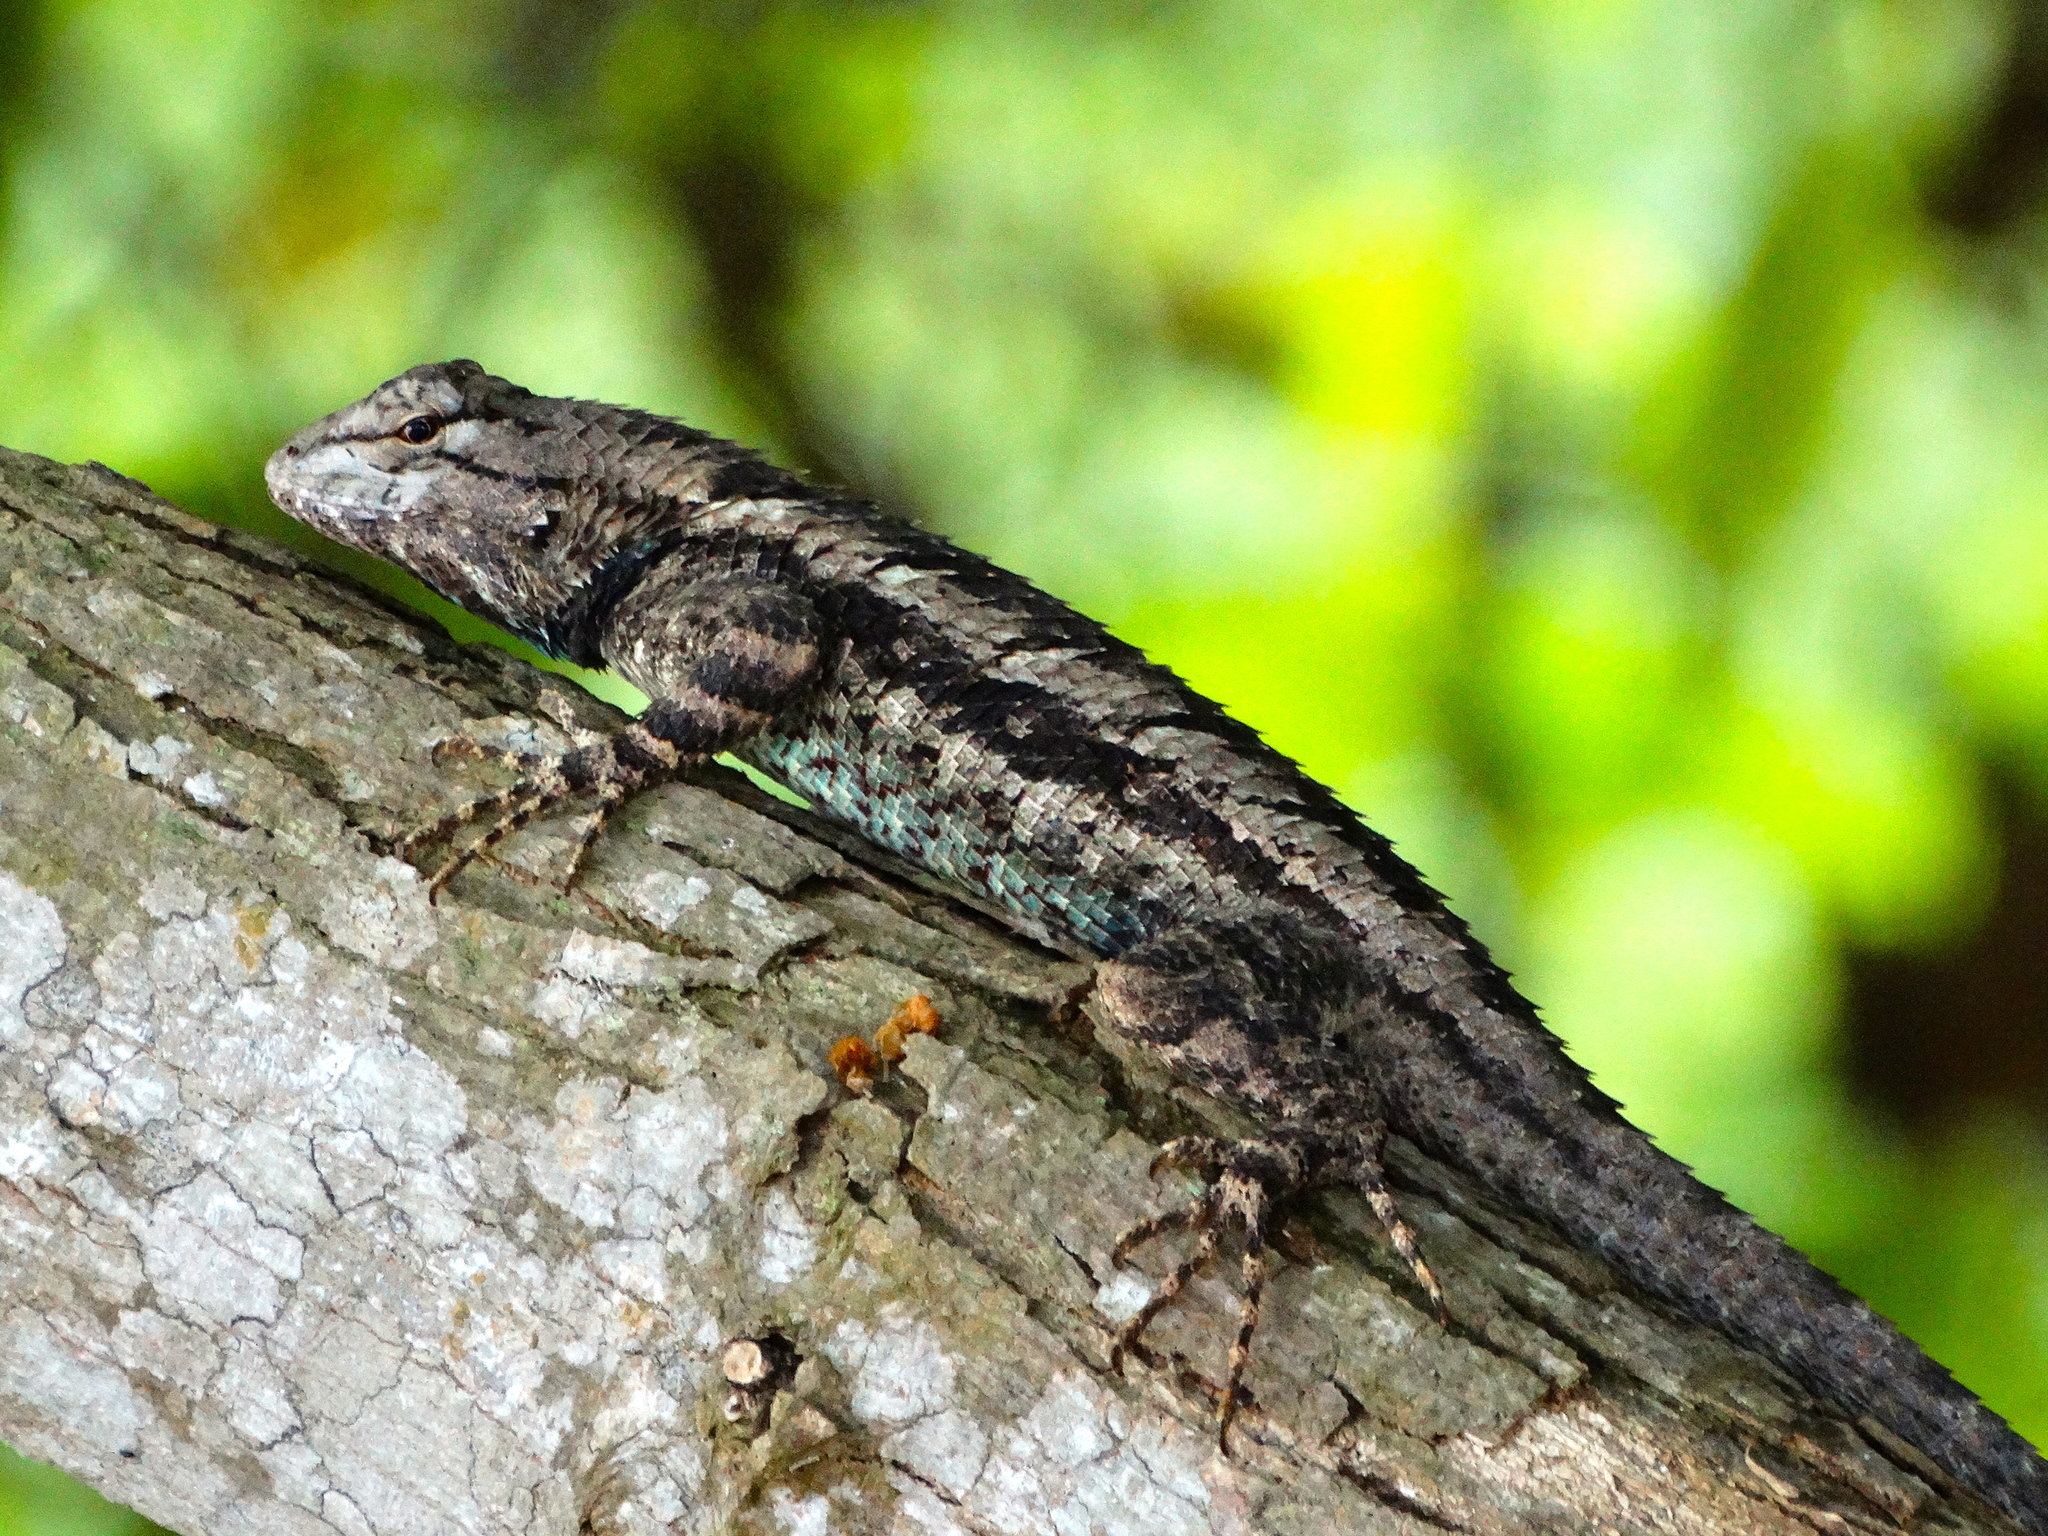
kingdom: Animalia
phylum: Chordata
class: Squamata
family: Phrynosomatidae
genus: Sceloporus
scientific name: Sceloporus clarkii
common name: Clark's spiny lizard
